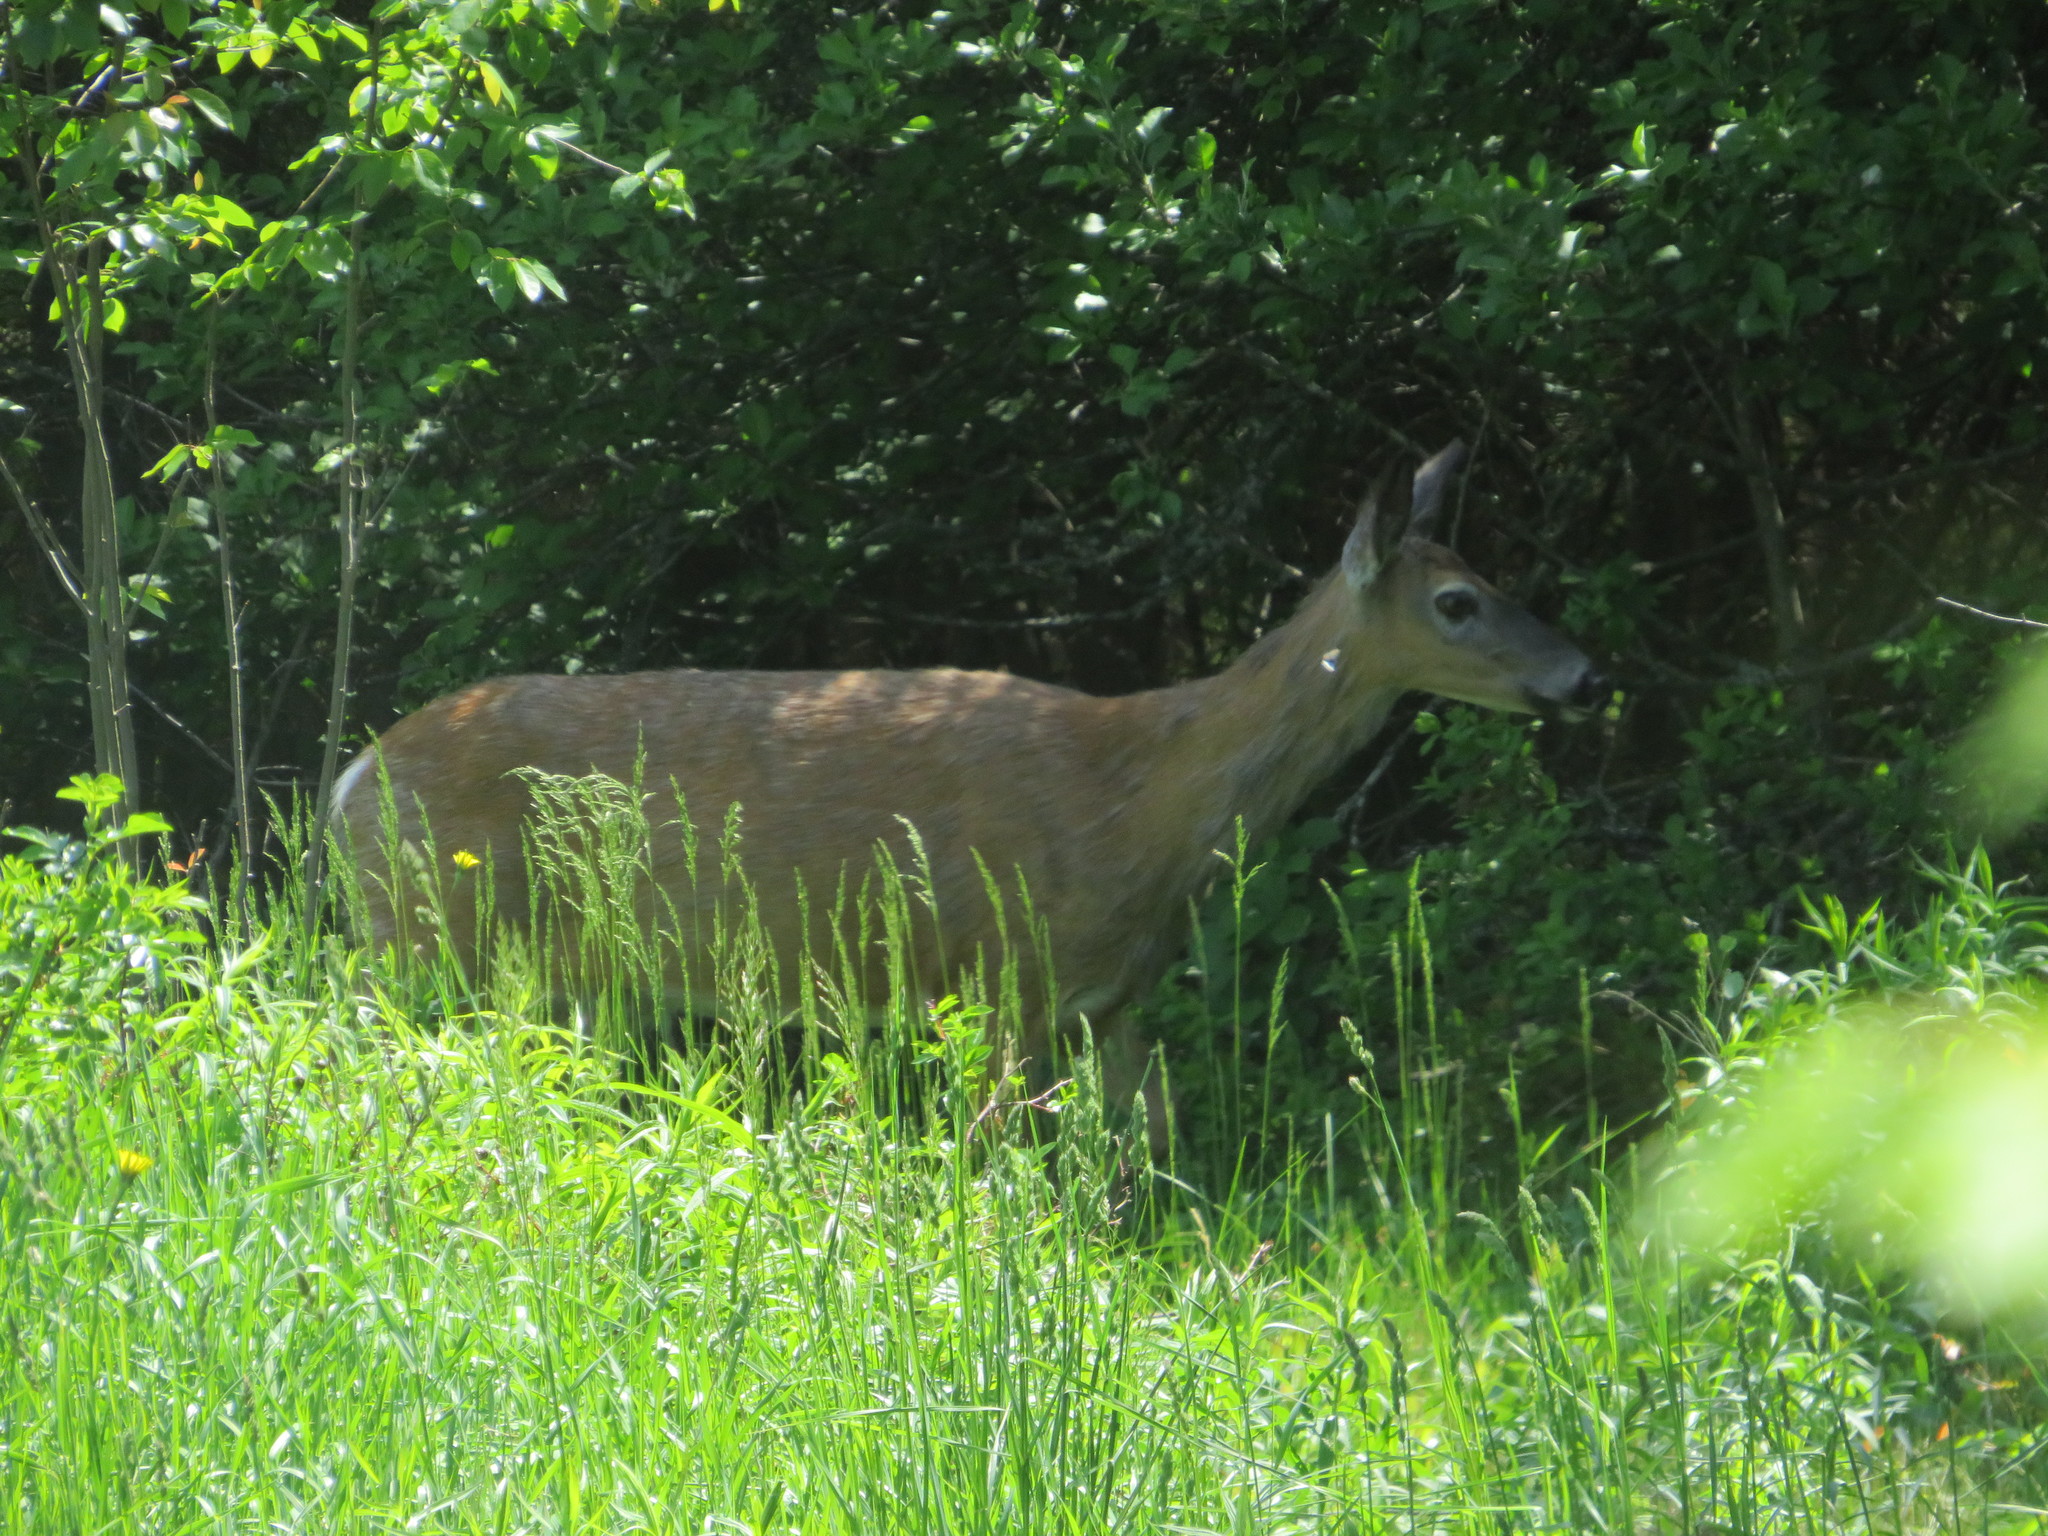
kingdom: Animalia
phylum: Chordata
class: Mammalia
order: Artiodactyla
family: Cervidae
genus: Odocoileus
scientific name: Odocoileus virginianus
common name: White-tailed deer
